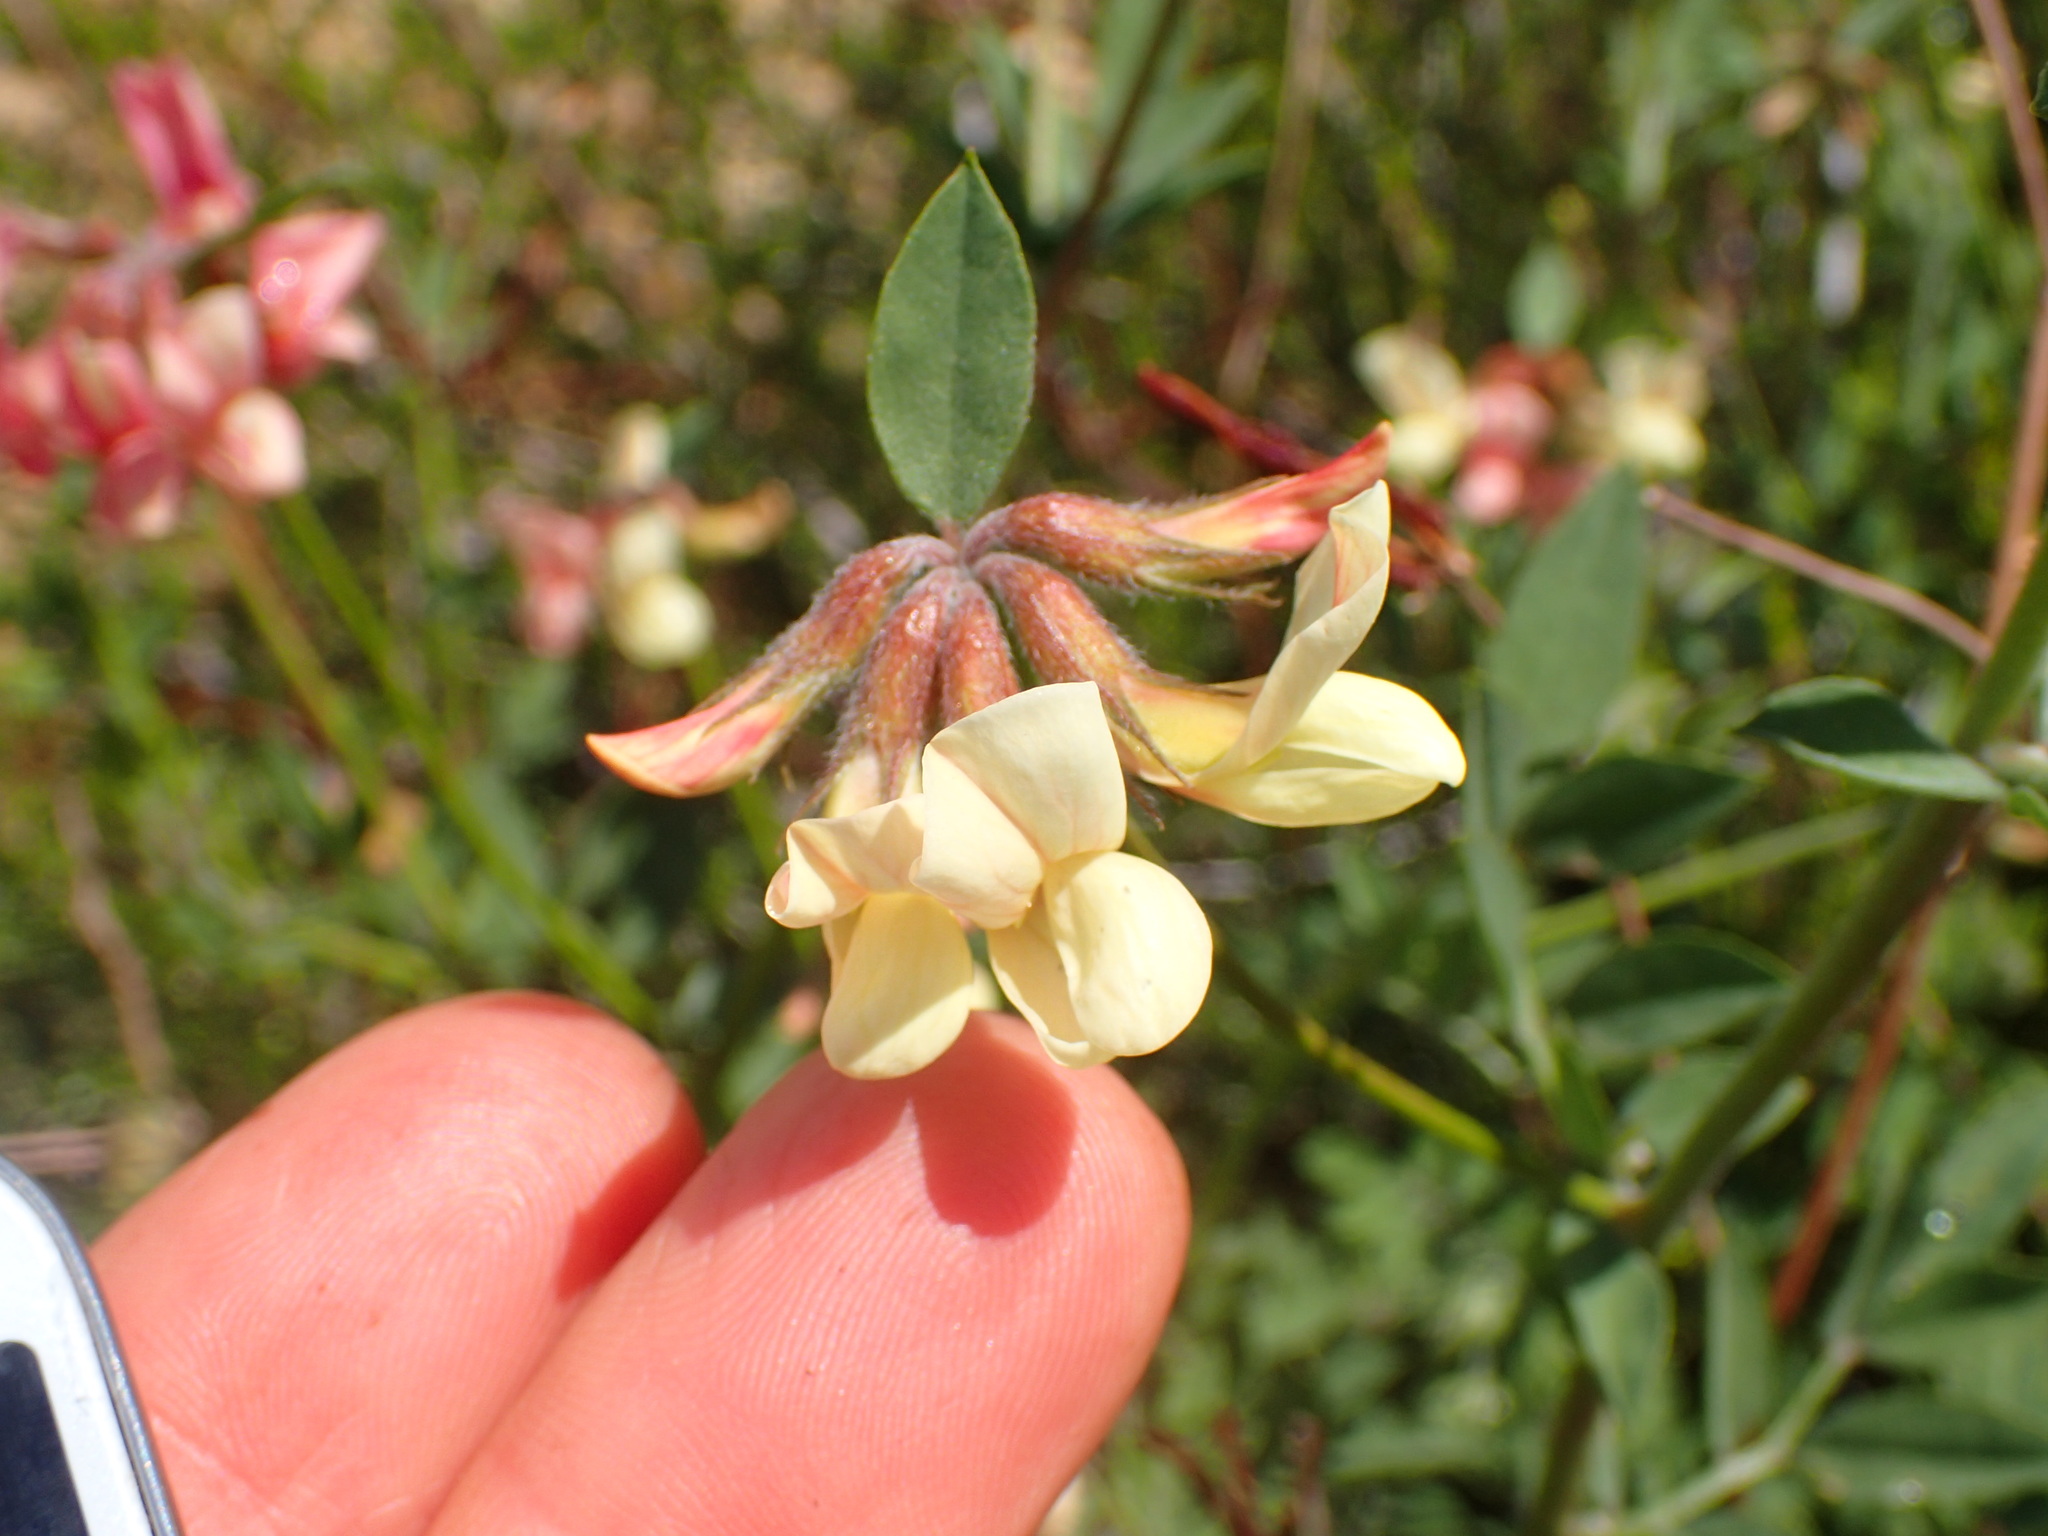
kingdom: Plantae
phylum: Tracheophyta
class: Magnoliopsida
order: Fabales
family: Fabaceae
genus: Acmispon
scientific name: Acmispon grandiflorus
